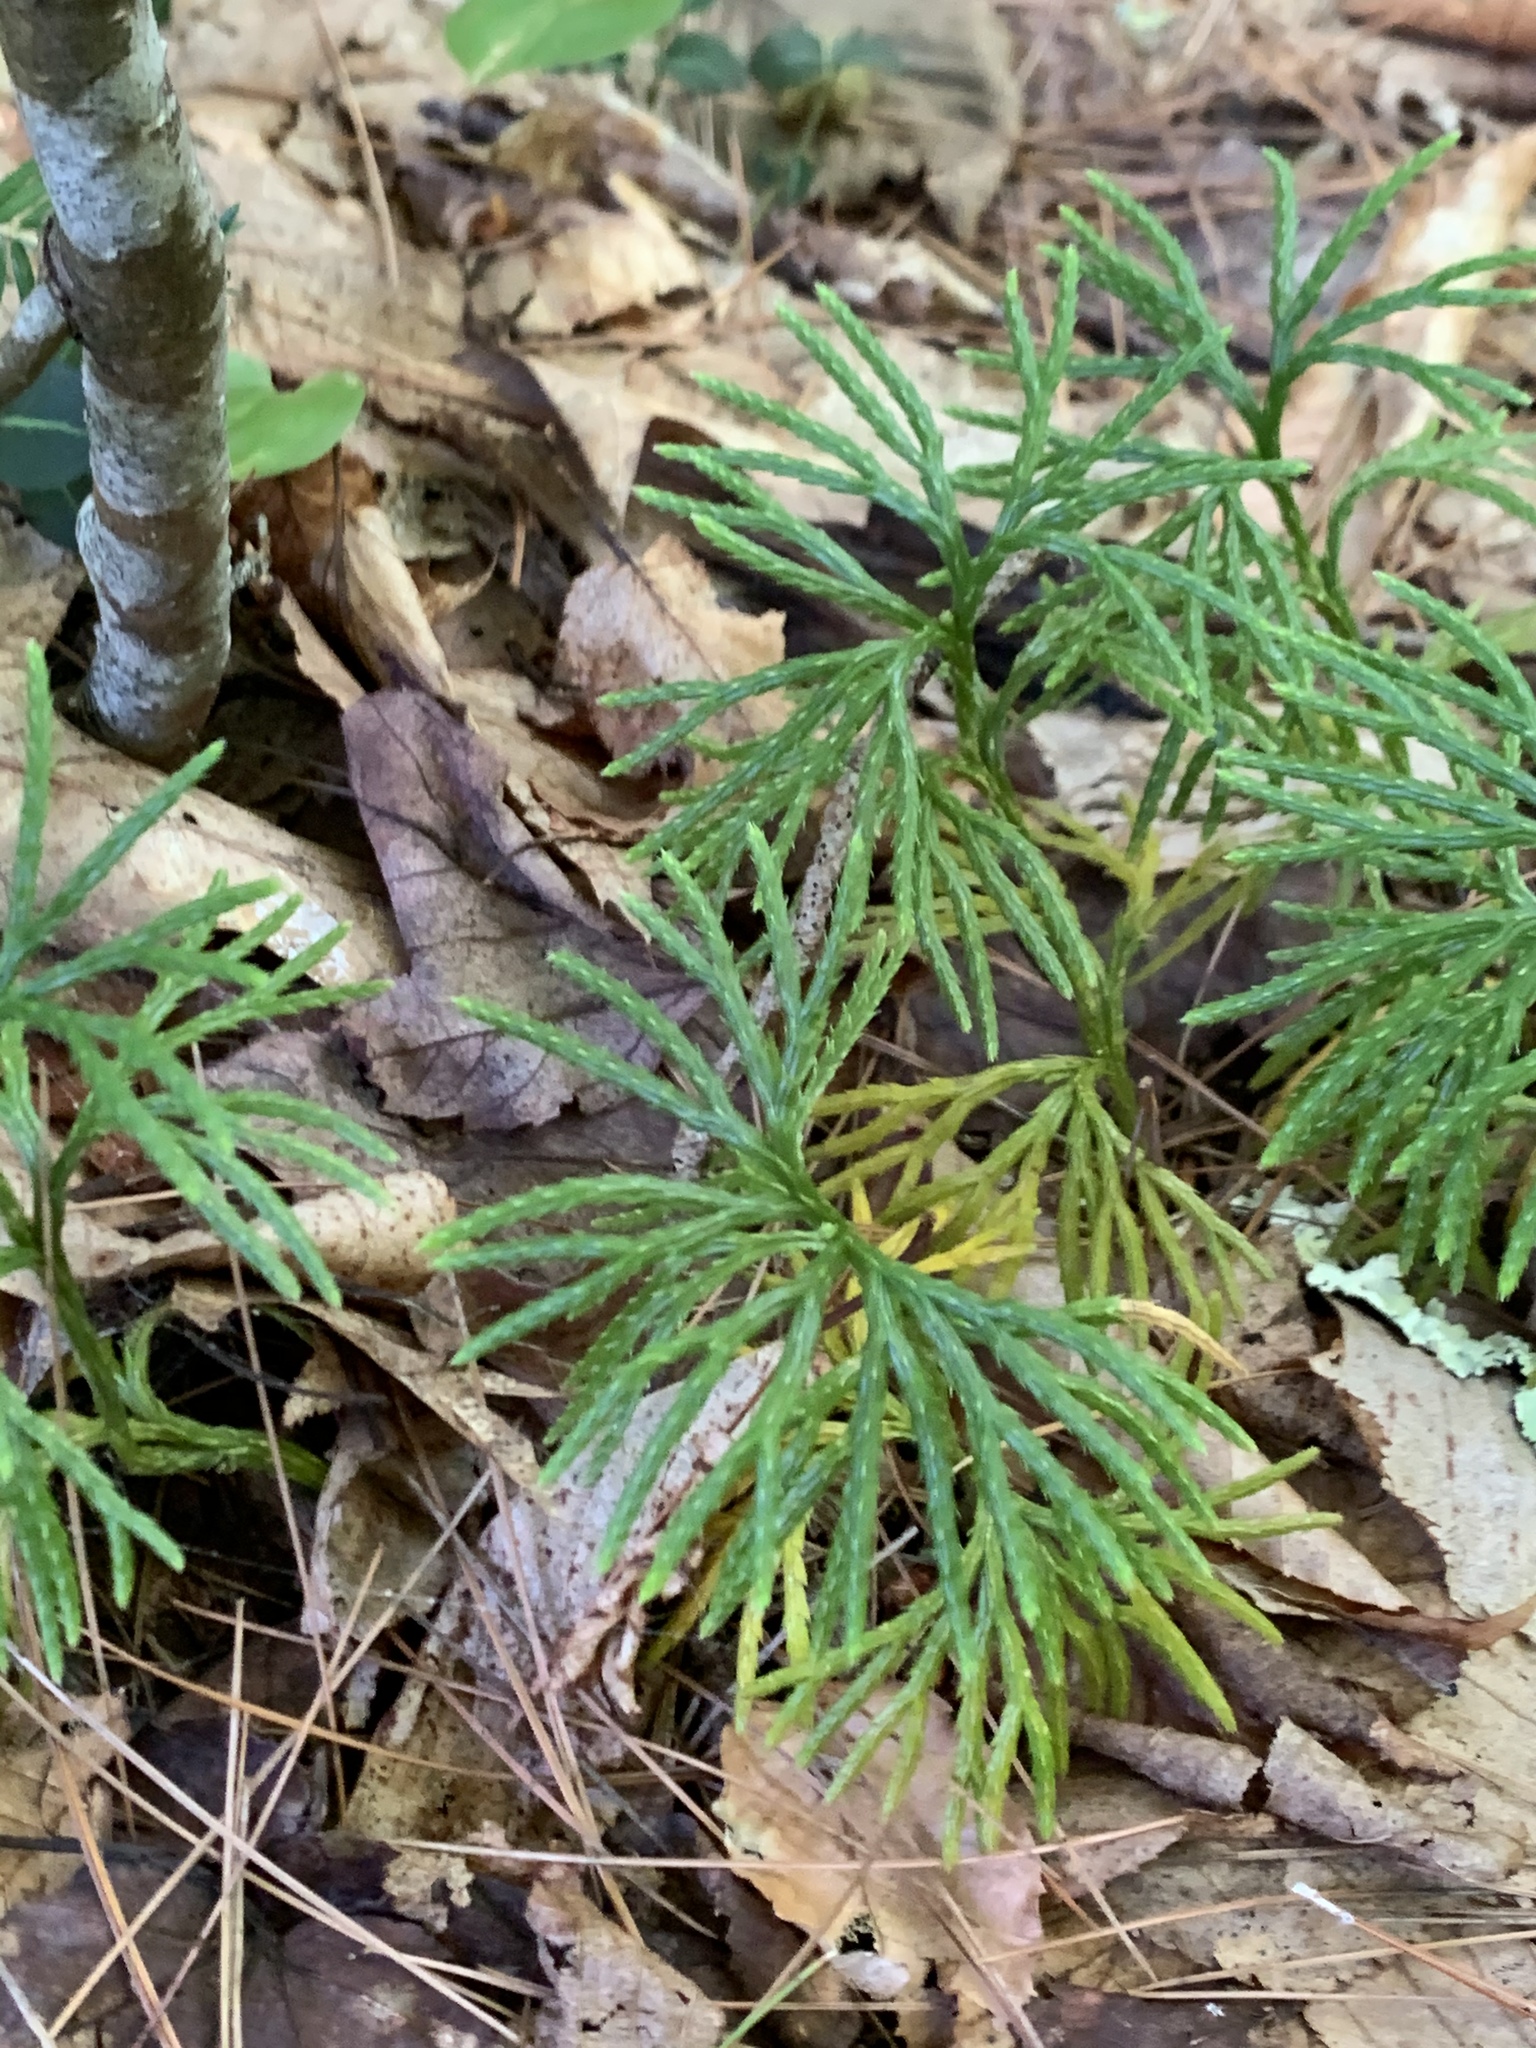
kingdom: Plantae
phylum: Tracheophyta
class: Lycopodiopsida
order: Lycopodiales
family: Lycopodiaceae
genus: Diphasiastrum
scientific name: Diphasiastrum digitatum
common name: Southern running-pine
